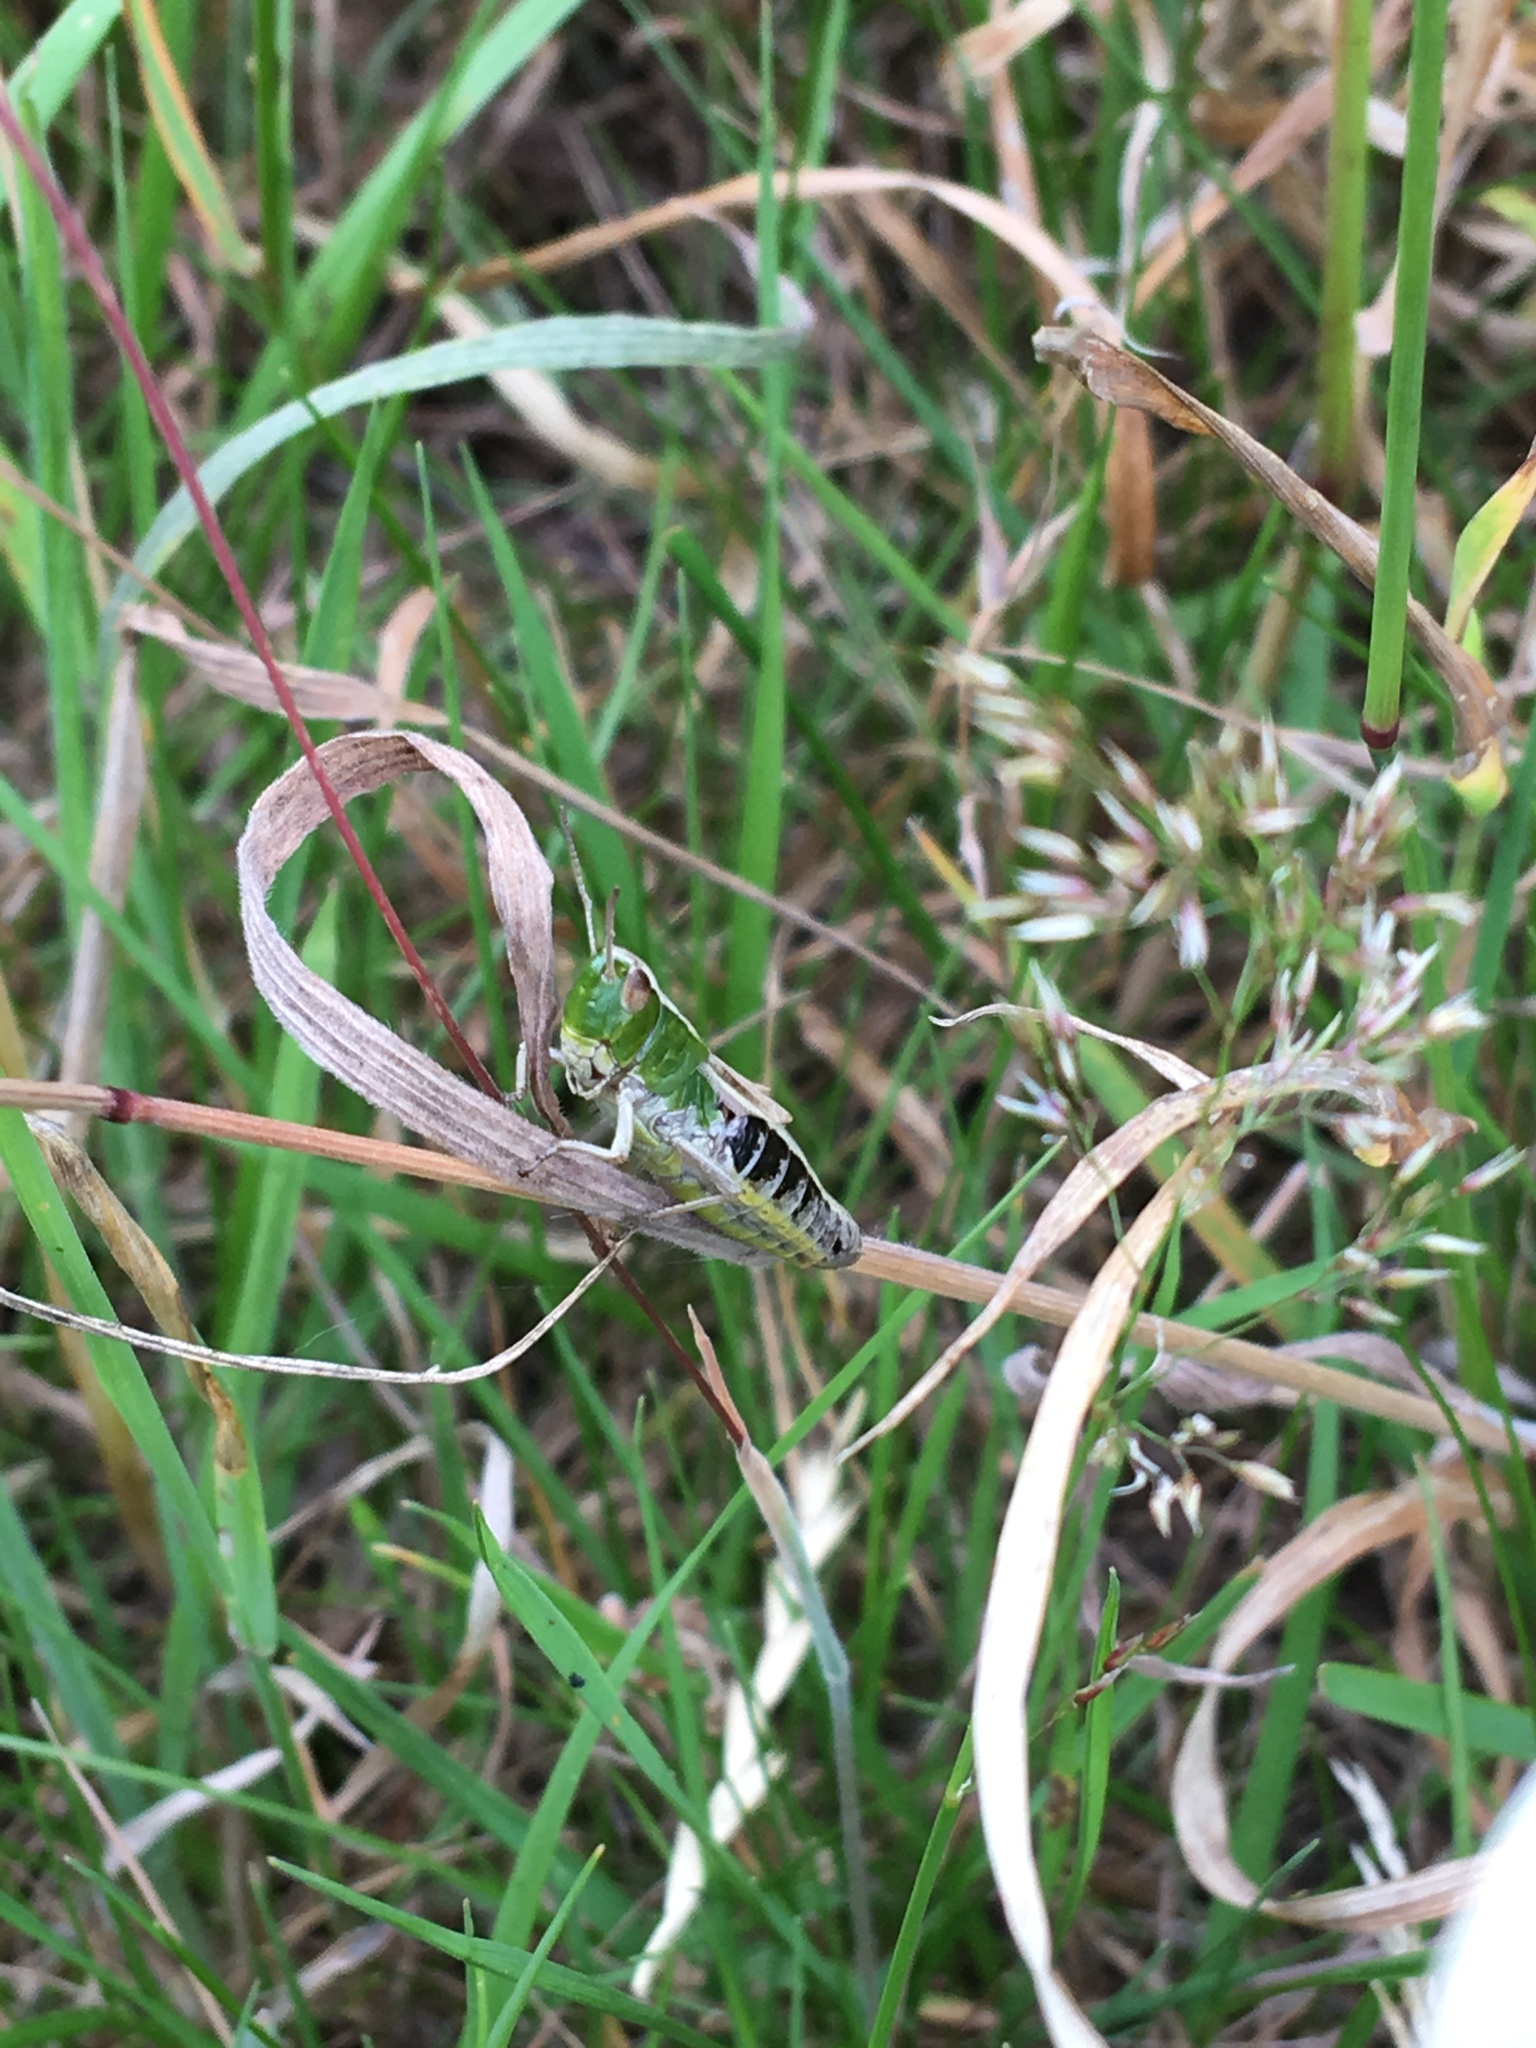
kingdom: Animalia
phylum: Arthropoda
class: Insecta
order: Orthoptera
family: Acrididae
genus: Pseudochorthippus
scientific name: Pseudochorthippus parallelus
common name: Meadow grasshopper
